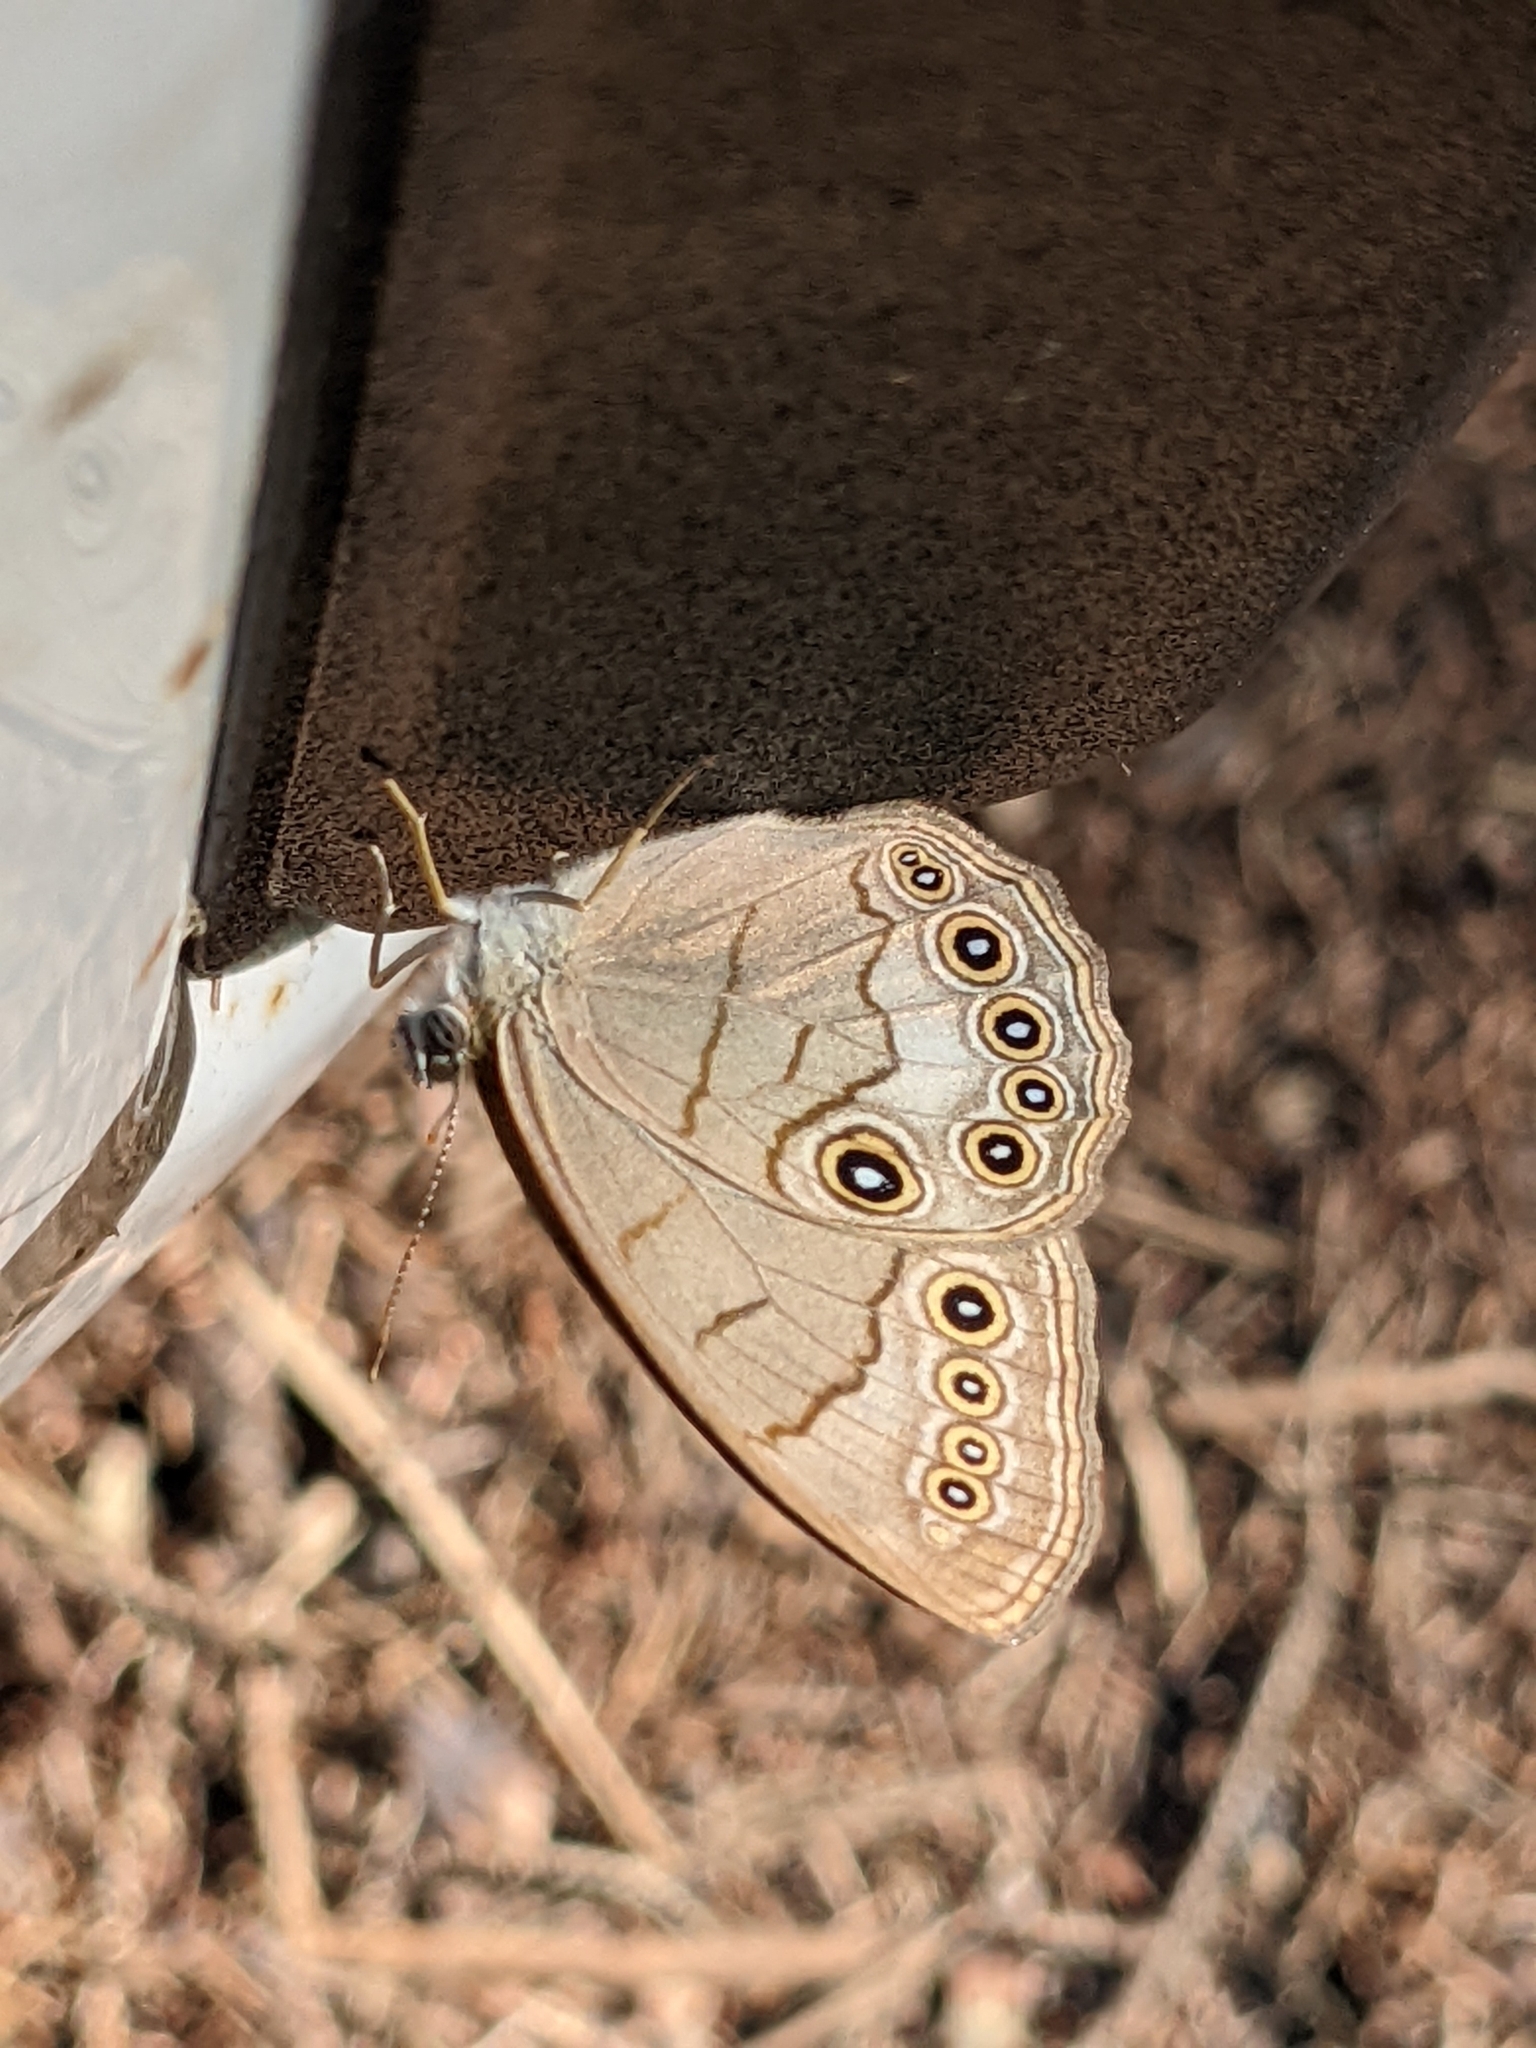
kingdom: Animalia
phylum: Arthropoda
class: Insecta
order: Lepidoptera
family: Nymphalidae
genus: Lethe
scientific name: Lethe eurydice
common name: Eyed brown
